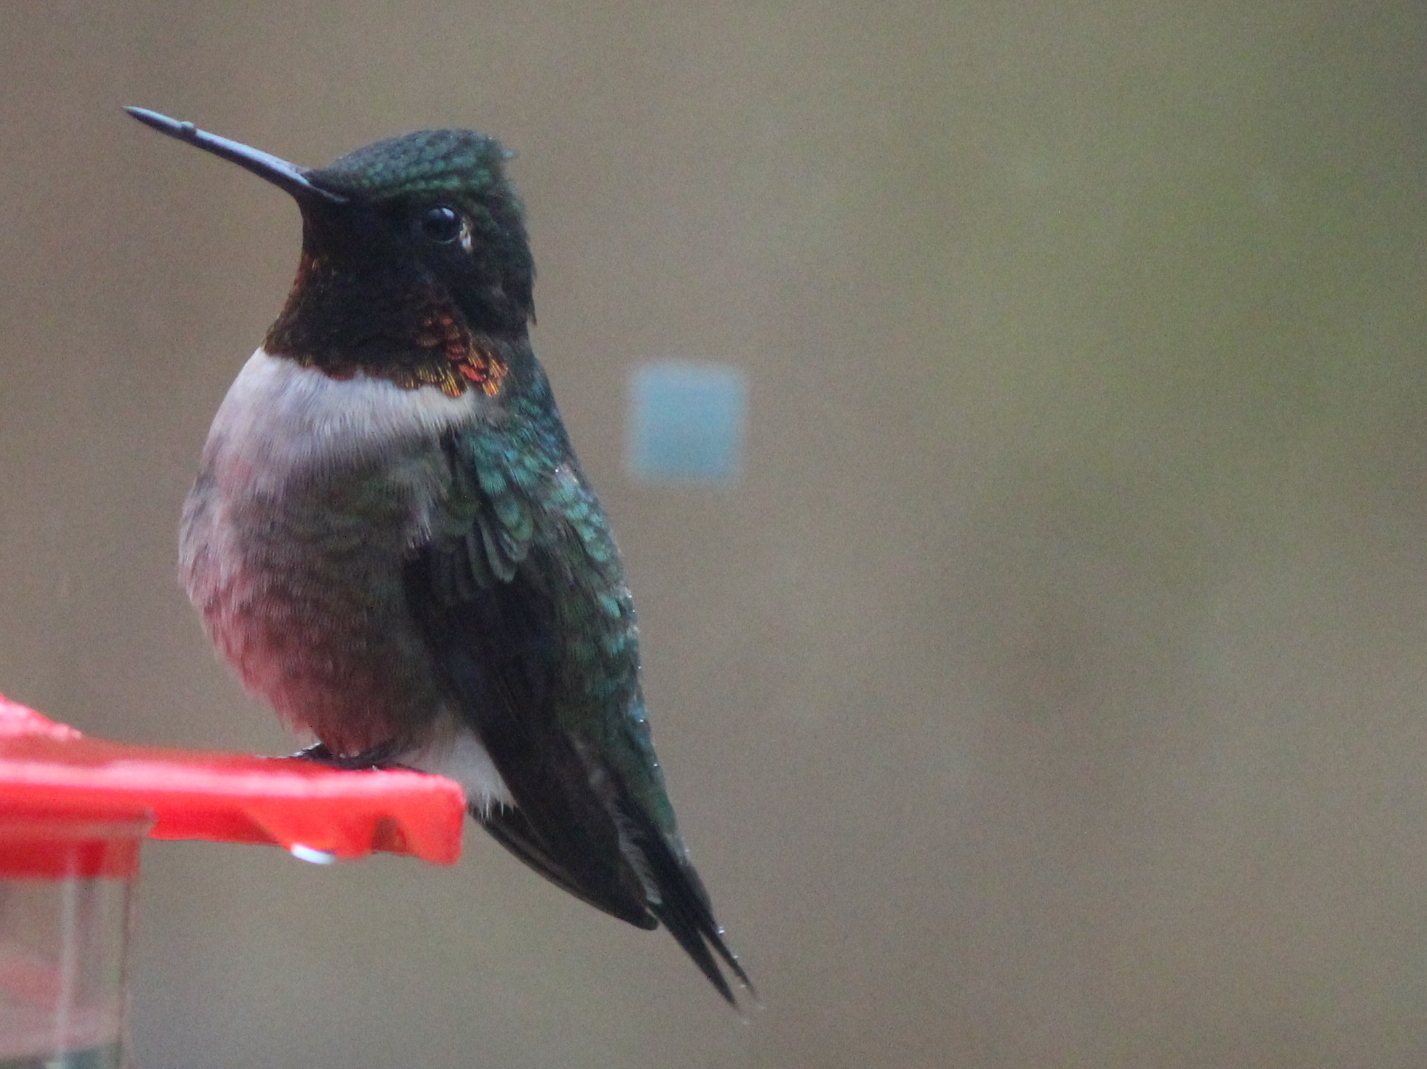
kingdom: Animalia
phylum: Chordata
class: Aves
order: Apodiformes
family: Trochilidae
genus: Archilochus
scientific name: Archilochus colubris
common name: Ruby-throated hummingbird
